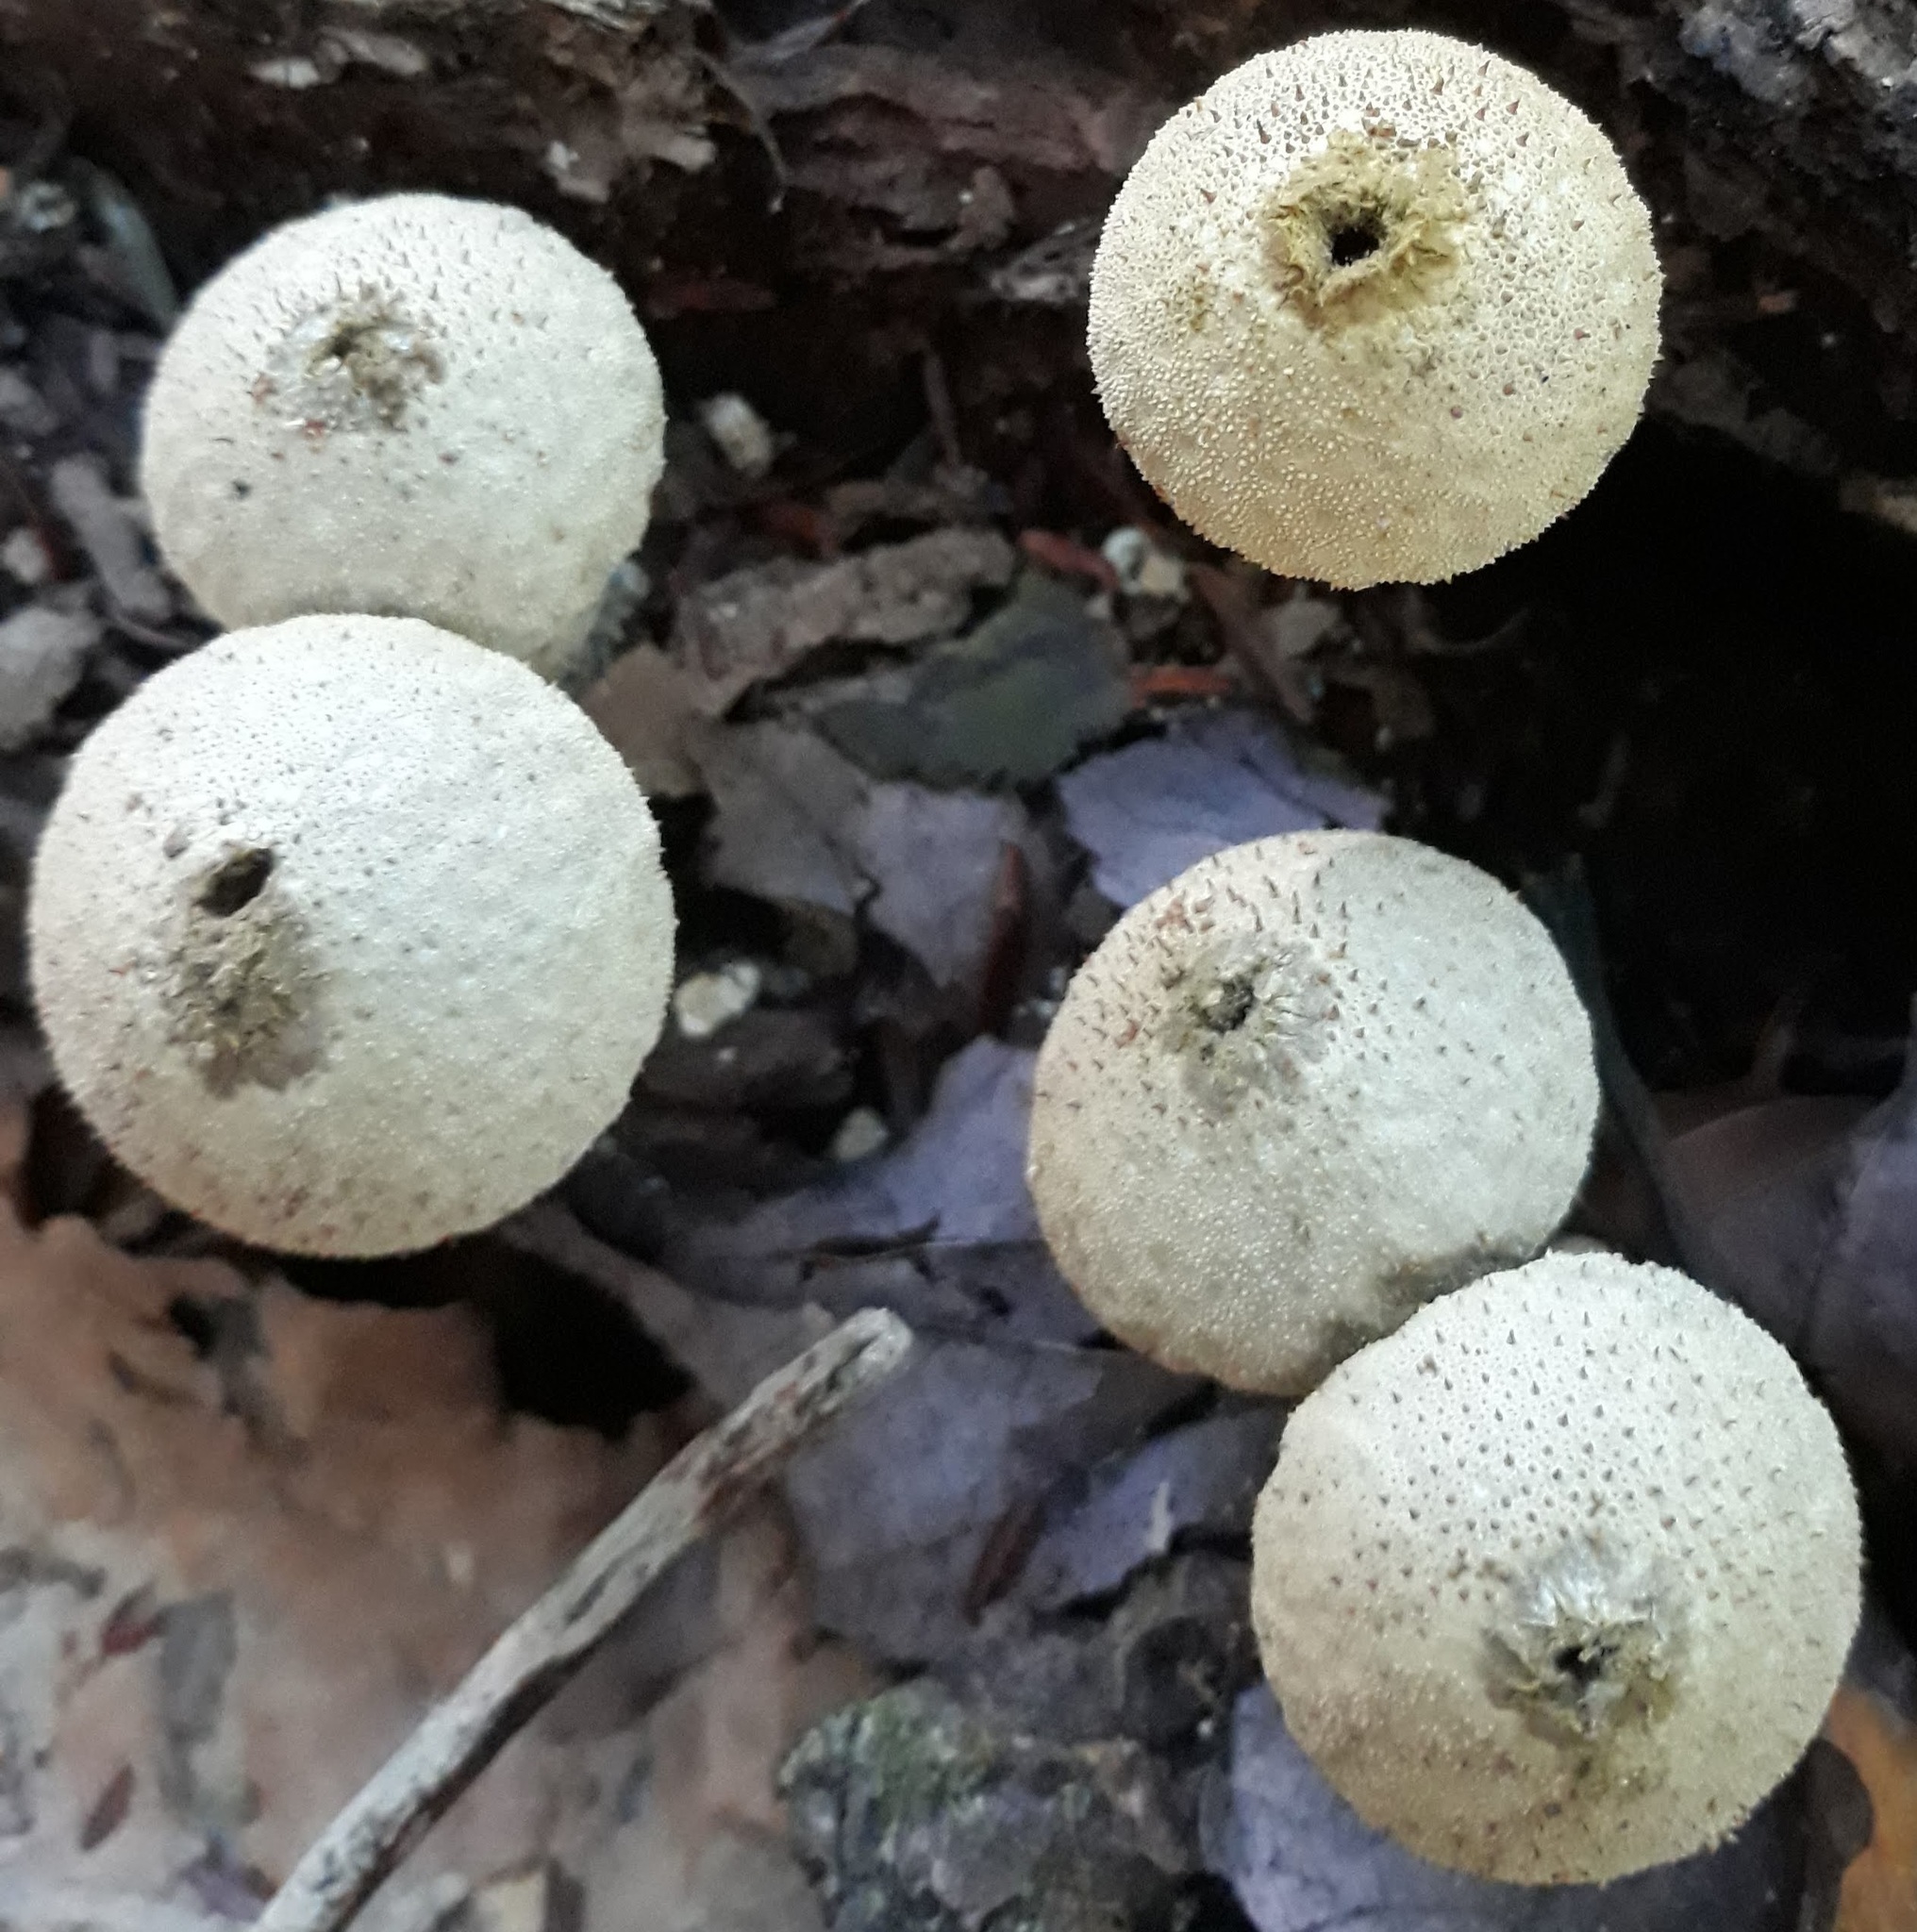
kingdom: Fungi
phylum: Basidiomycota
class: Agaricomycetes
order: Agaricales
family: Lycoperdaceae
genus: Lycoperdon
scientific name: Lycoperdon perlatum
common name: Common puffball
